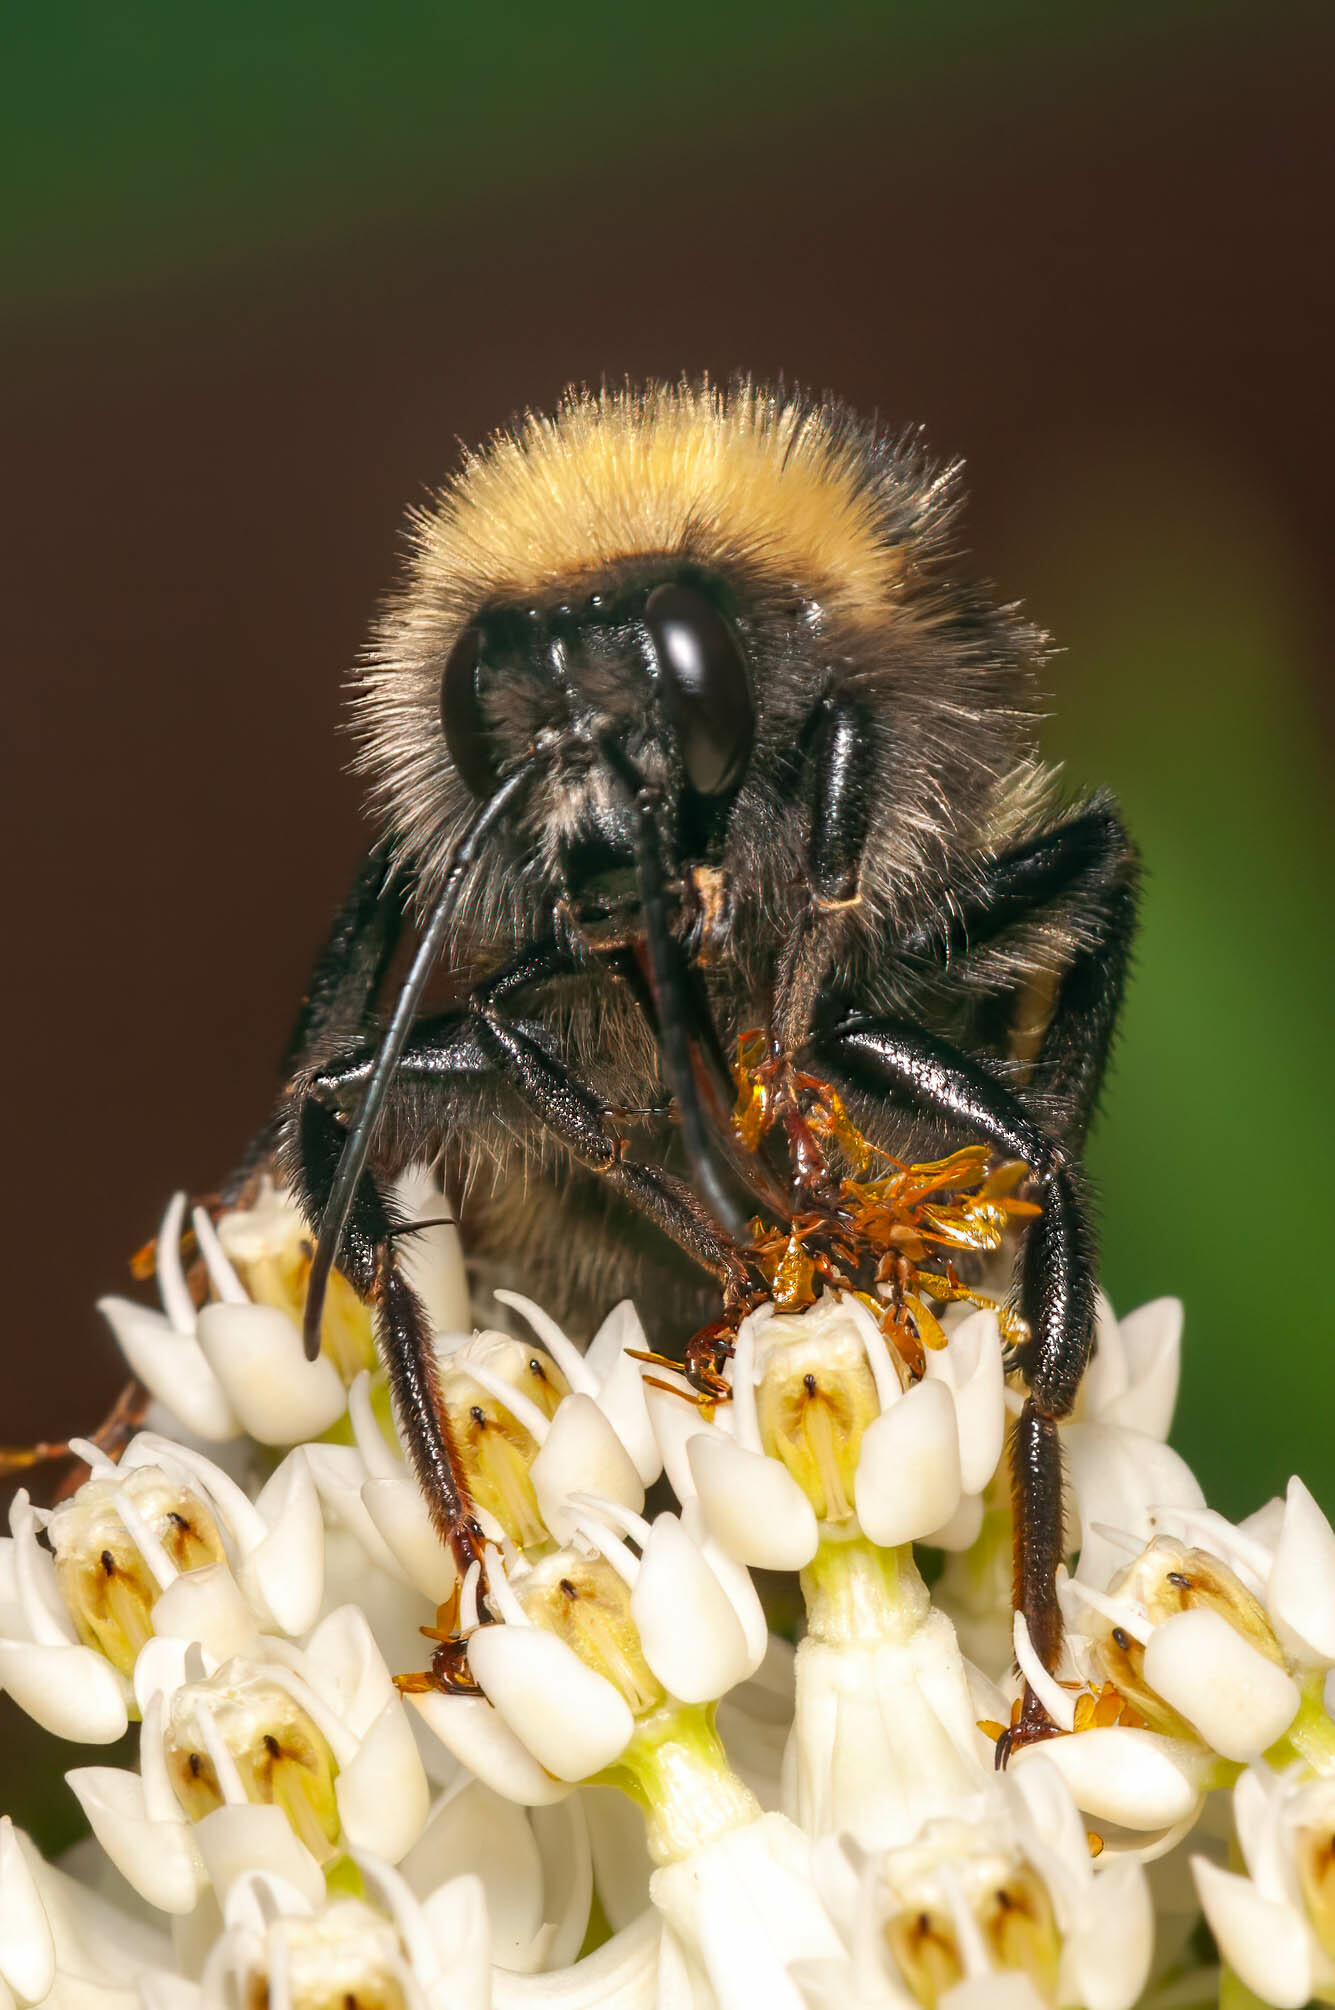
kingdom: Animalia
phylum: Arthropoda
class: Insecta
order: Hymenoptera
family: Apidae
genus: Bombus
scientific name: Bombus borealis
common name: Northern amber bumble bee
